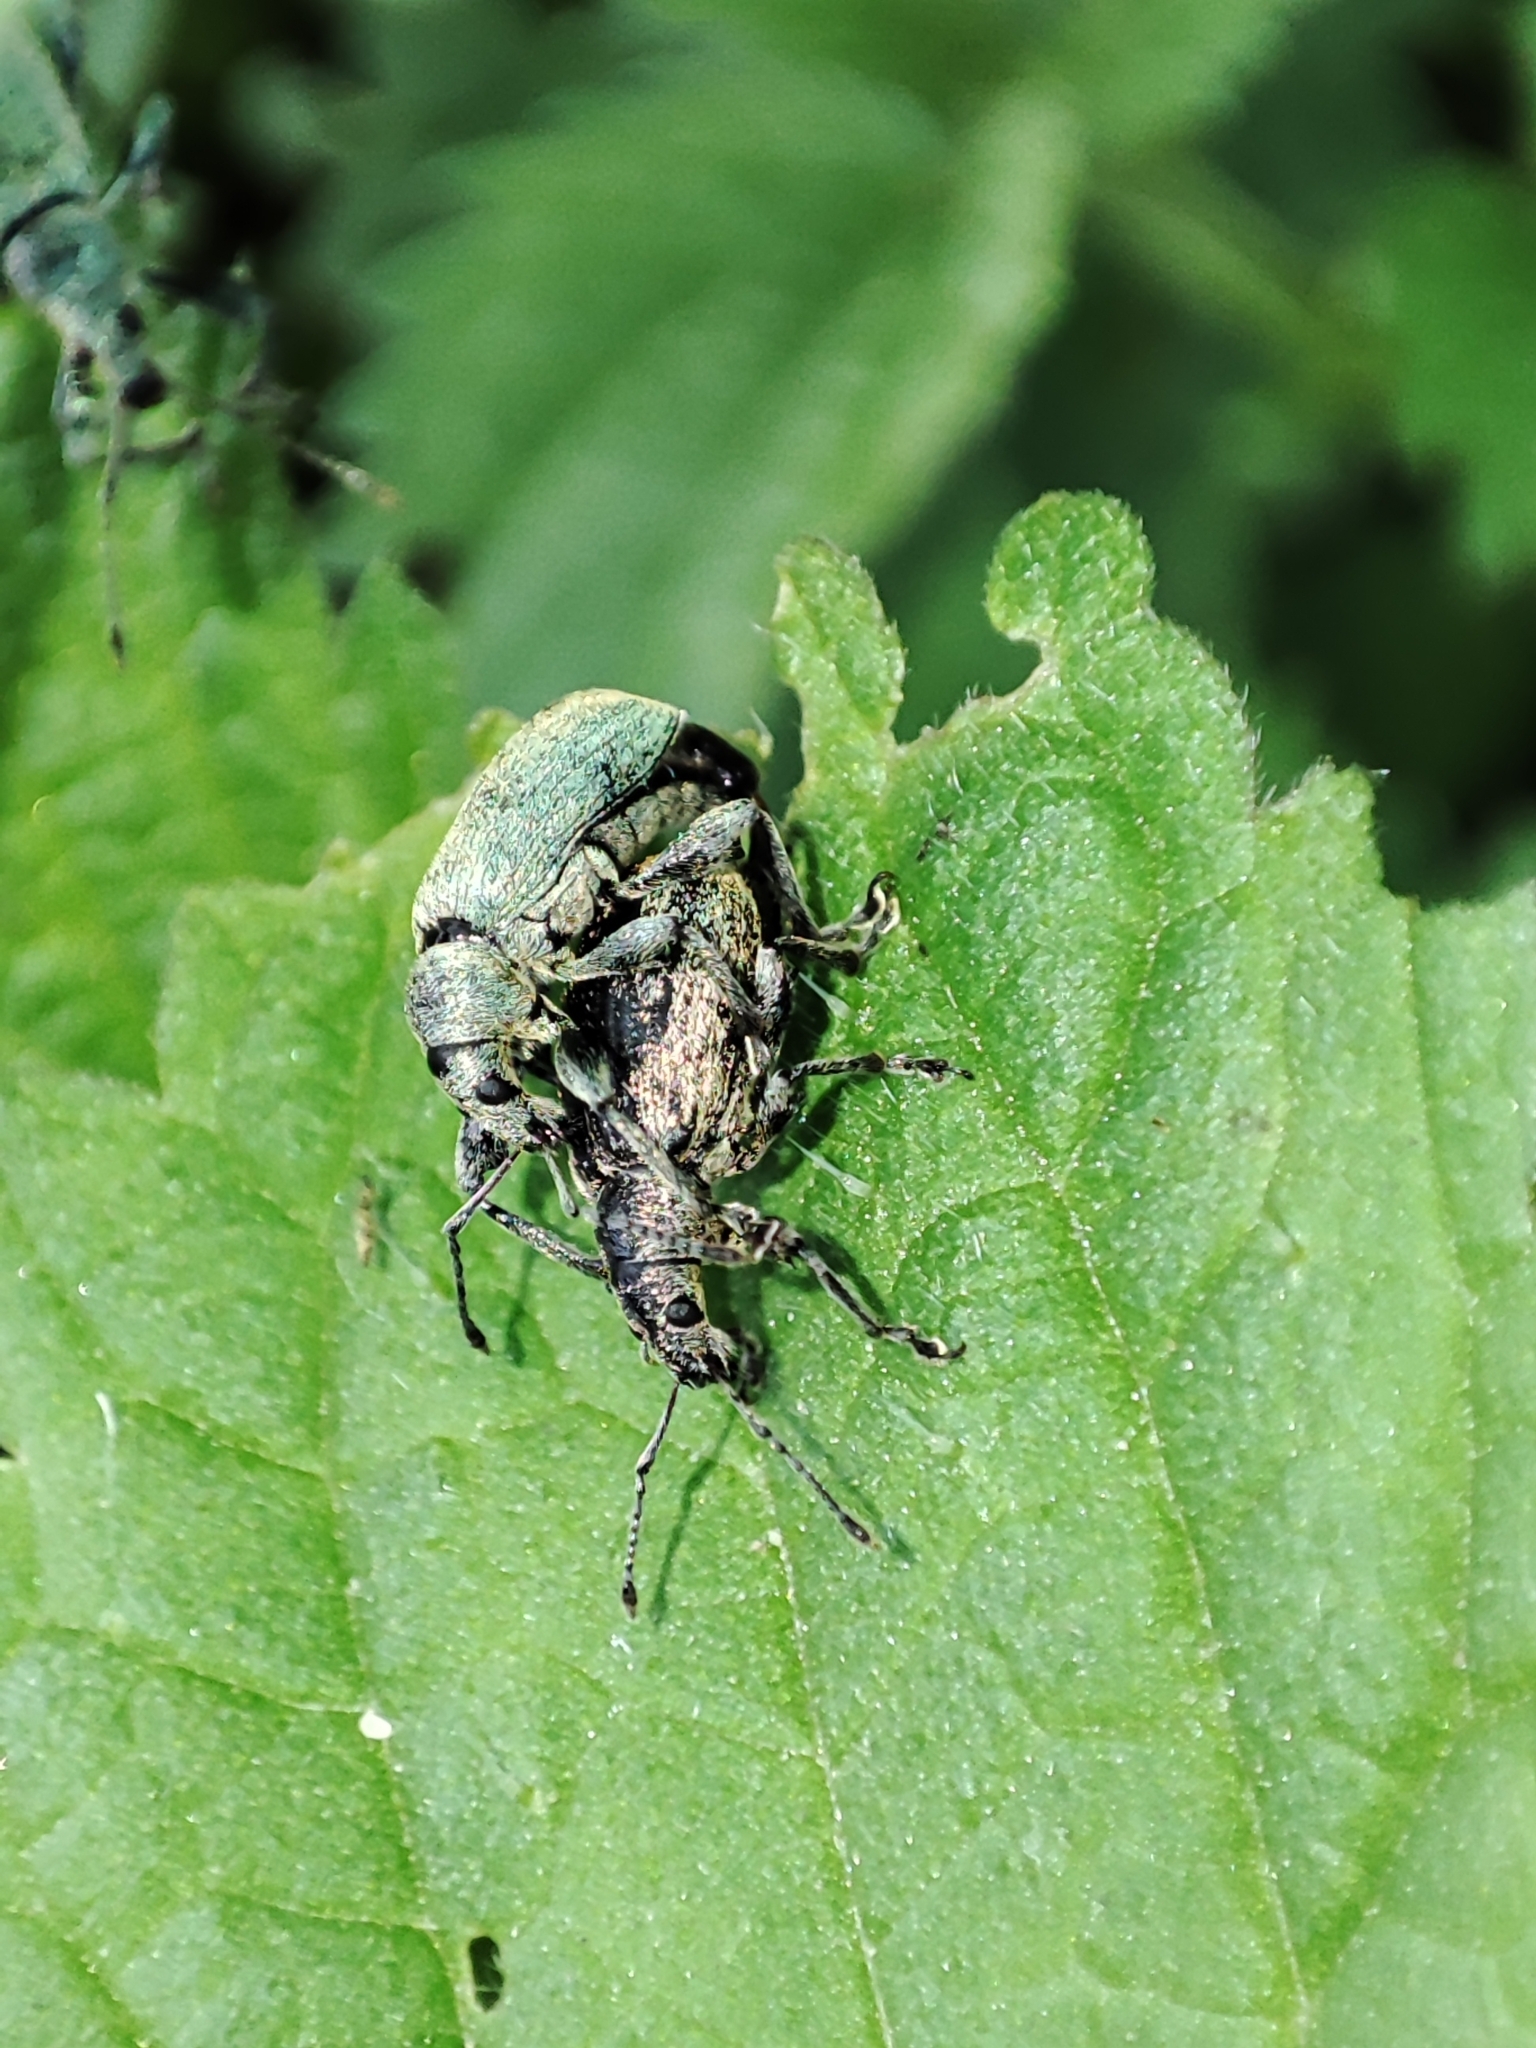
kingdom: Animalia
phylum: Arthropoda
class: Insecta
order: Coleoptera
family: Curculionidae
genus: Phyllobius
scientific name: Phyllobius pomaceus
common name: Green nettle weevil
